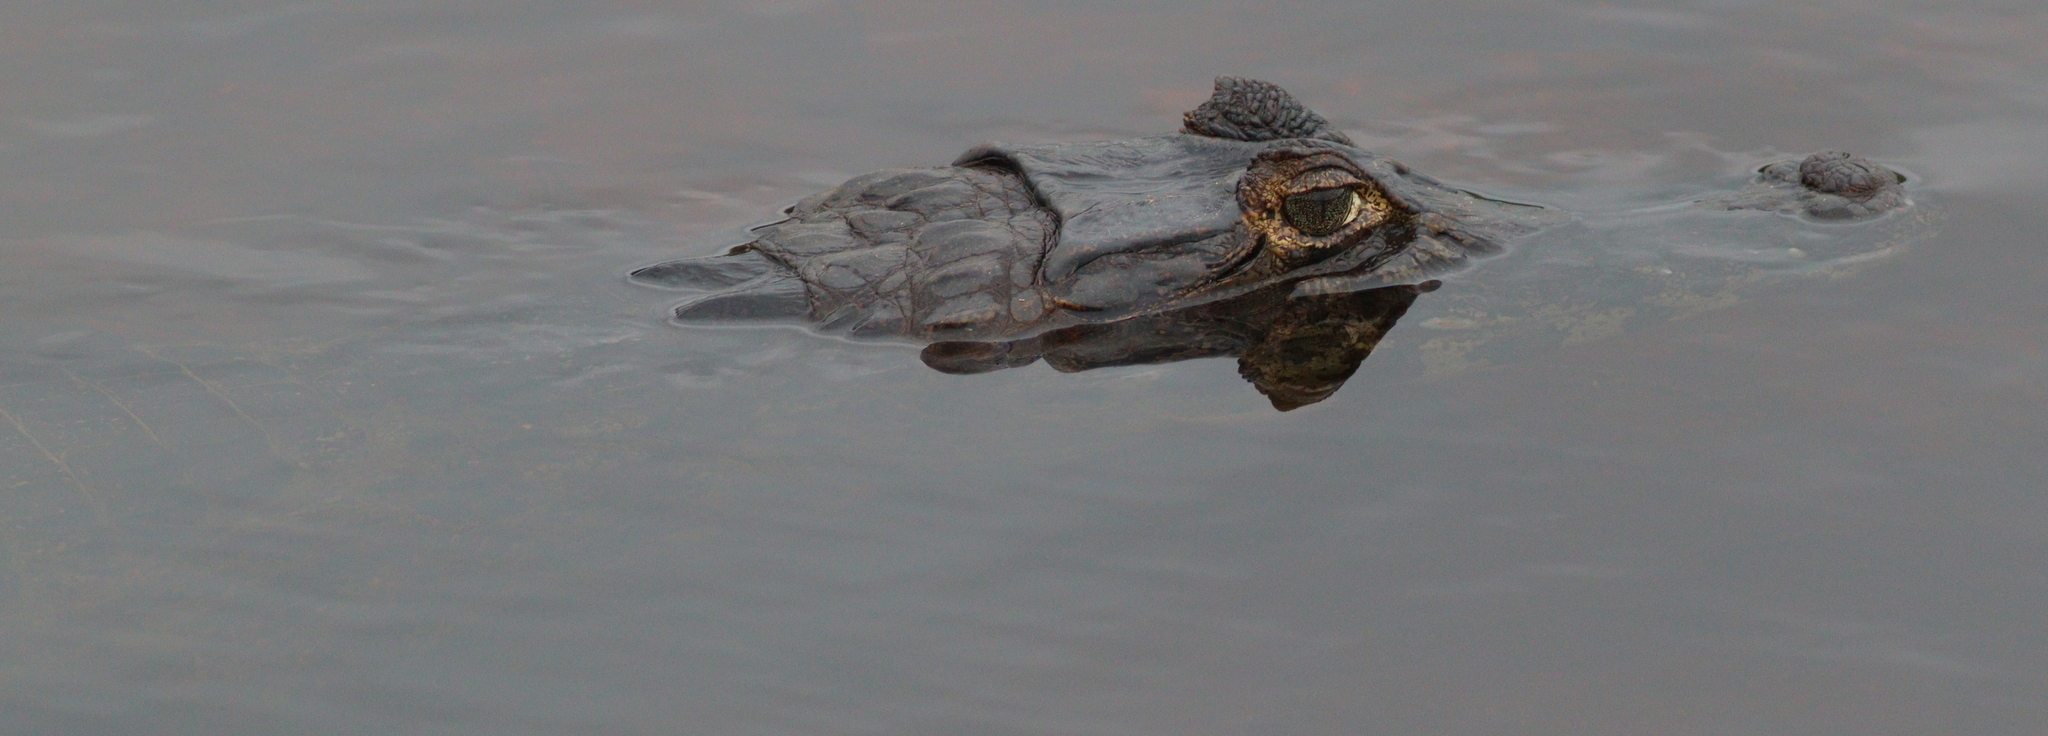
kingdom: Animalia
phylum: Chordata
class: Crocodylia
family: Alligatoridae
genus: Caiman
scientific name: Caiman yacare
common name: Yacare caiman
